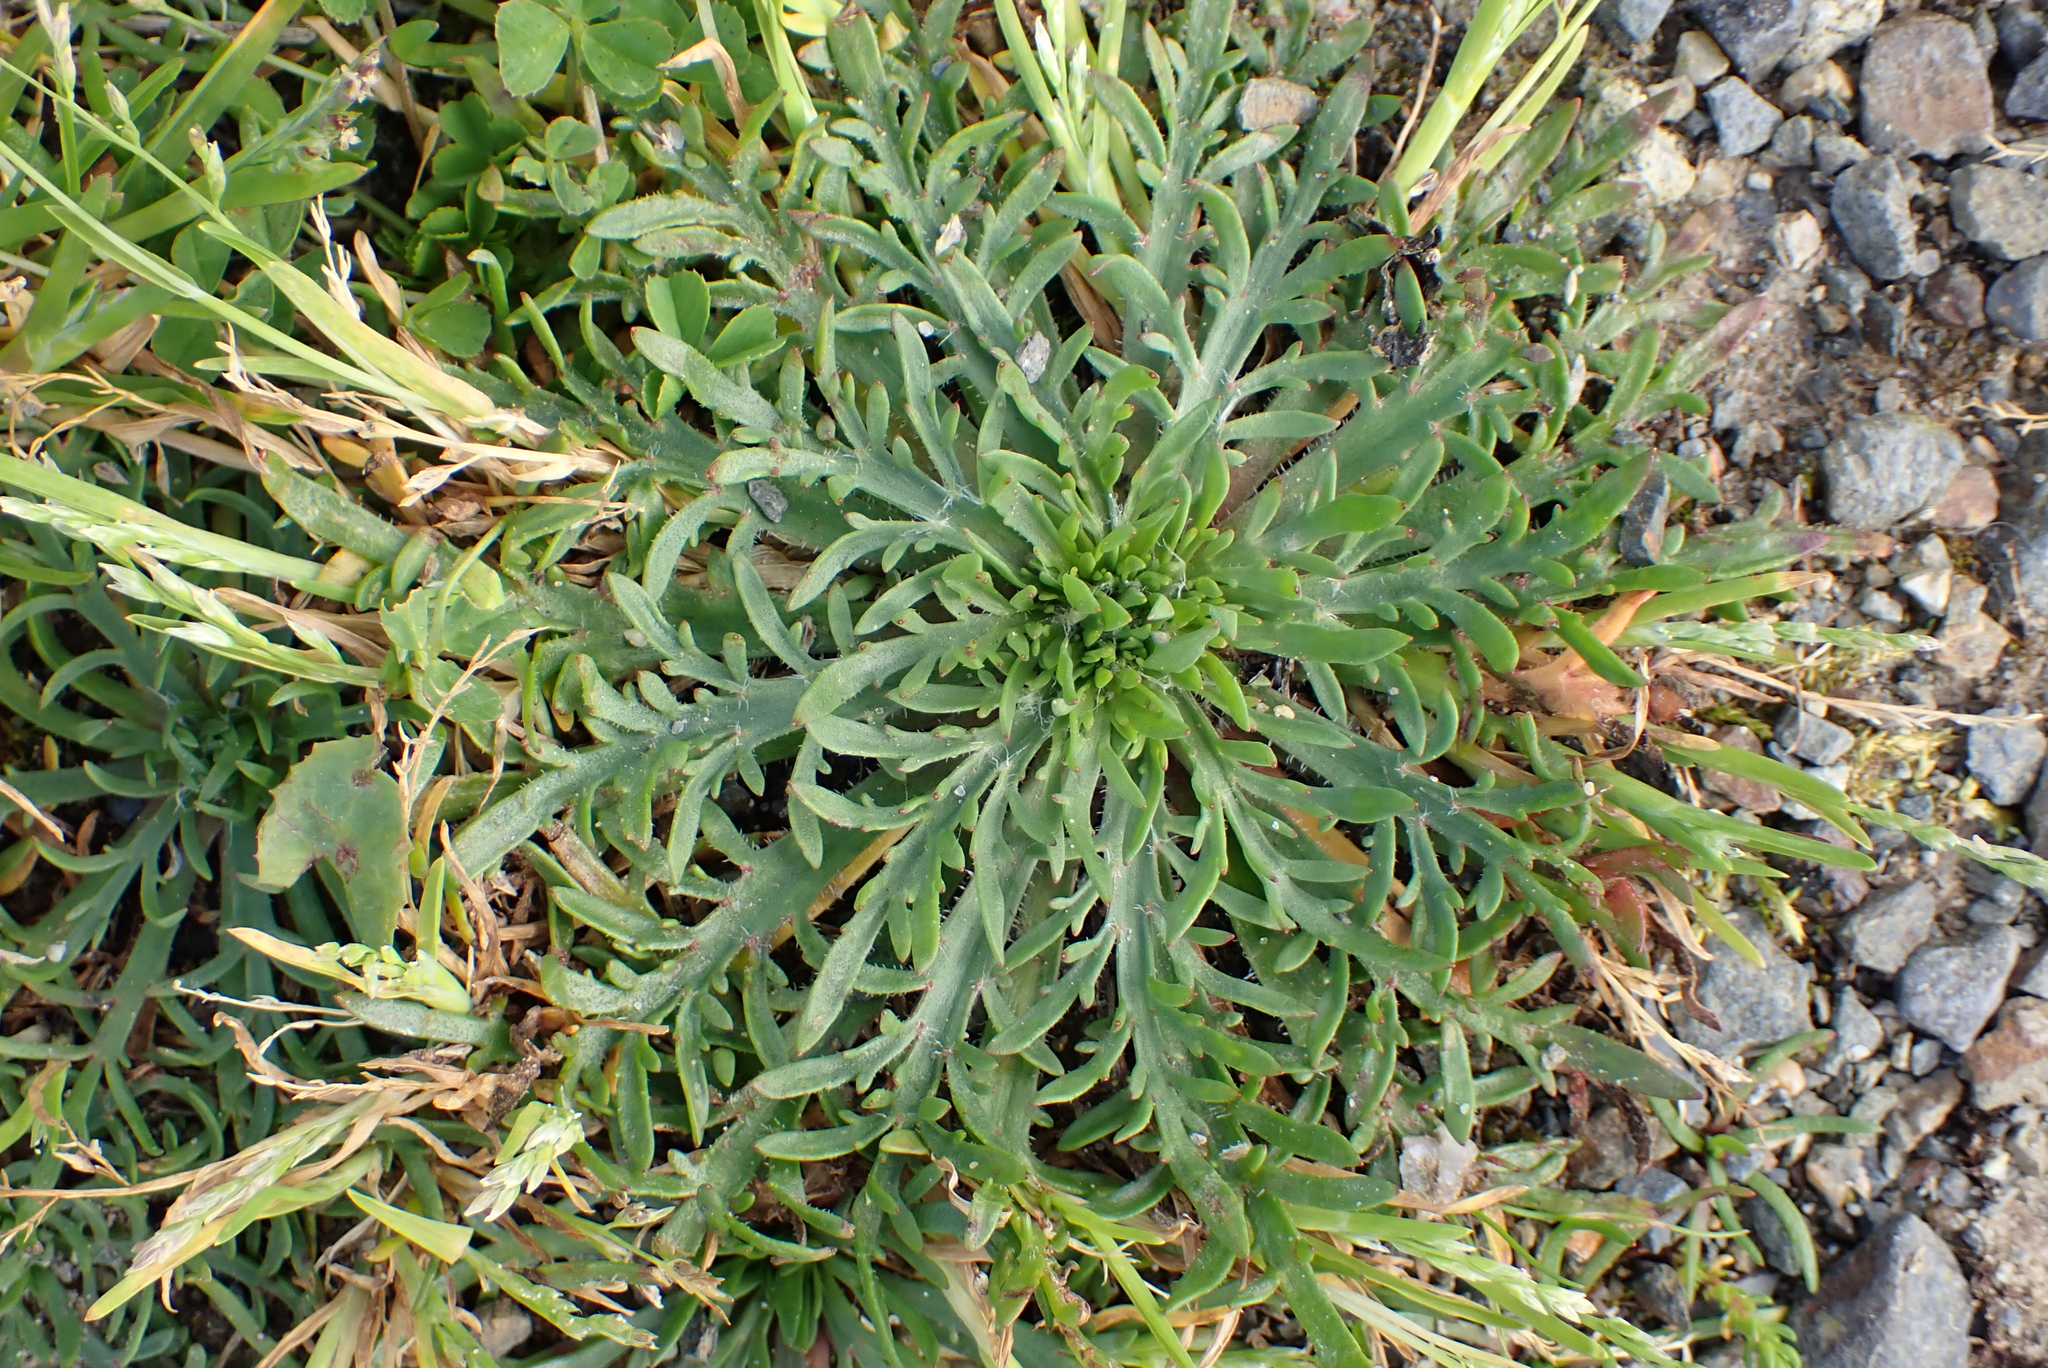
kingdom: Plantae
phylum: Tracheophyta
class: Magnoliopsida
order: Lamiales
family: Plantaginaceae
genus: Plantago
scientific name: Plantago coronopus
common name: Buck's-horn plantain
